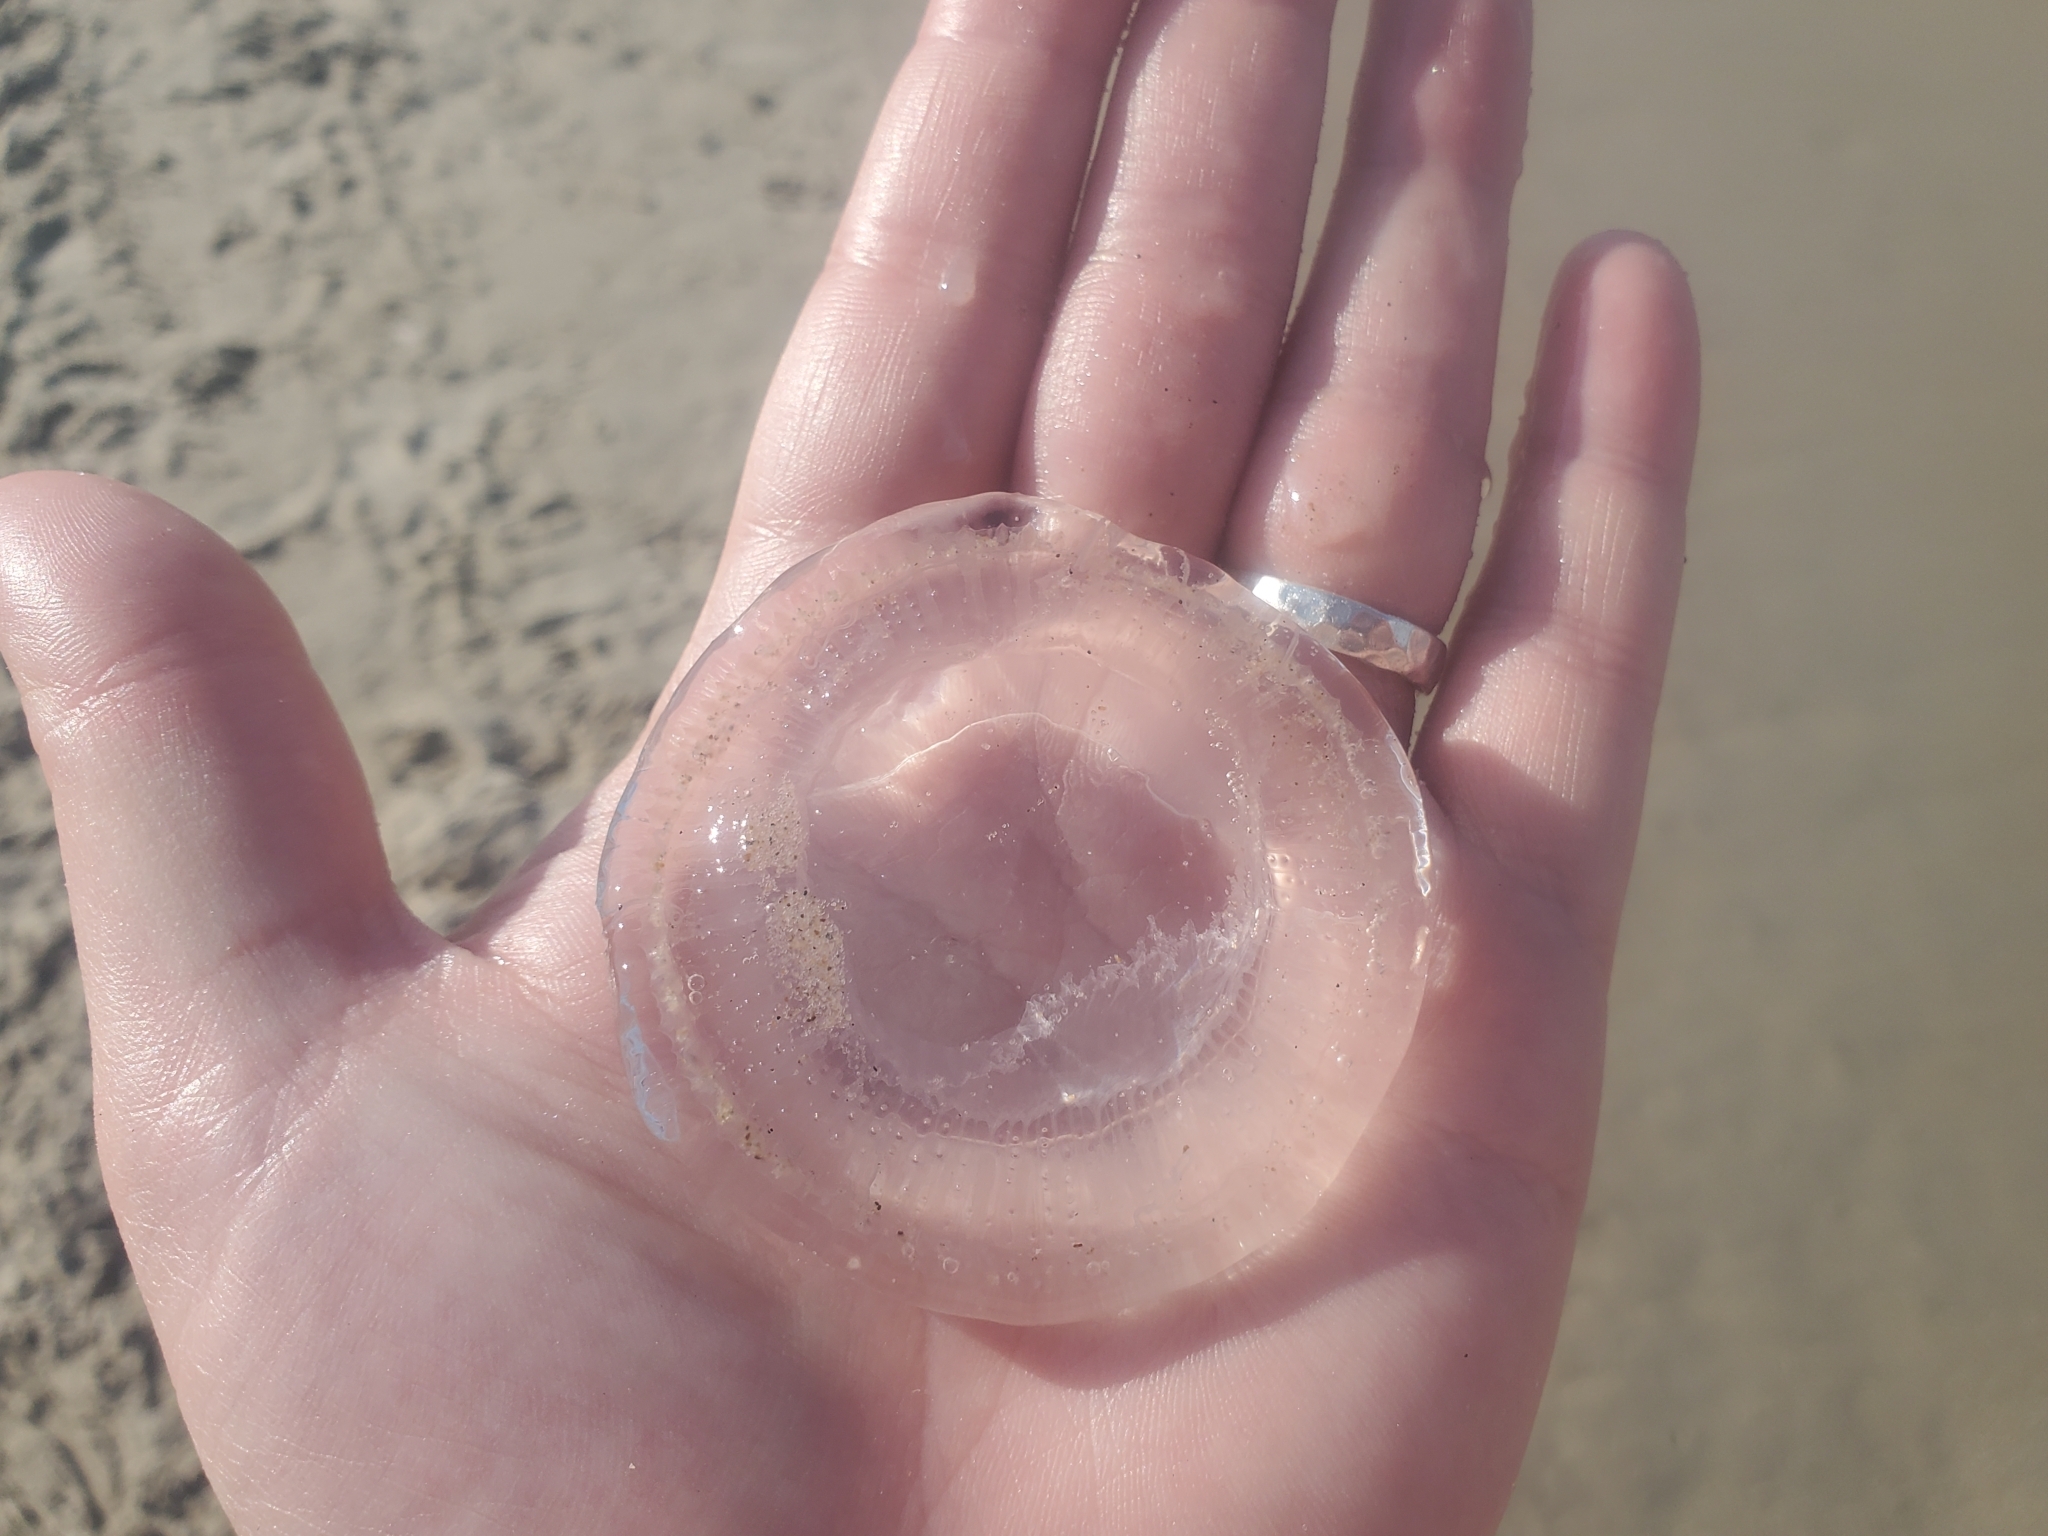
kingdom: Animalia
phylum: Cnidaria
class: Hydrozoa
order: Leptothecata
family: Aequoreidae
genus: Rhacostoma
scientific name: Rhacostoma atlanticum
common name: Lined water jelly
